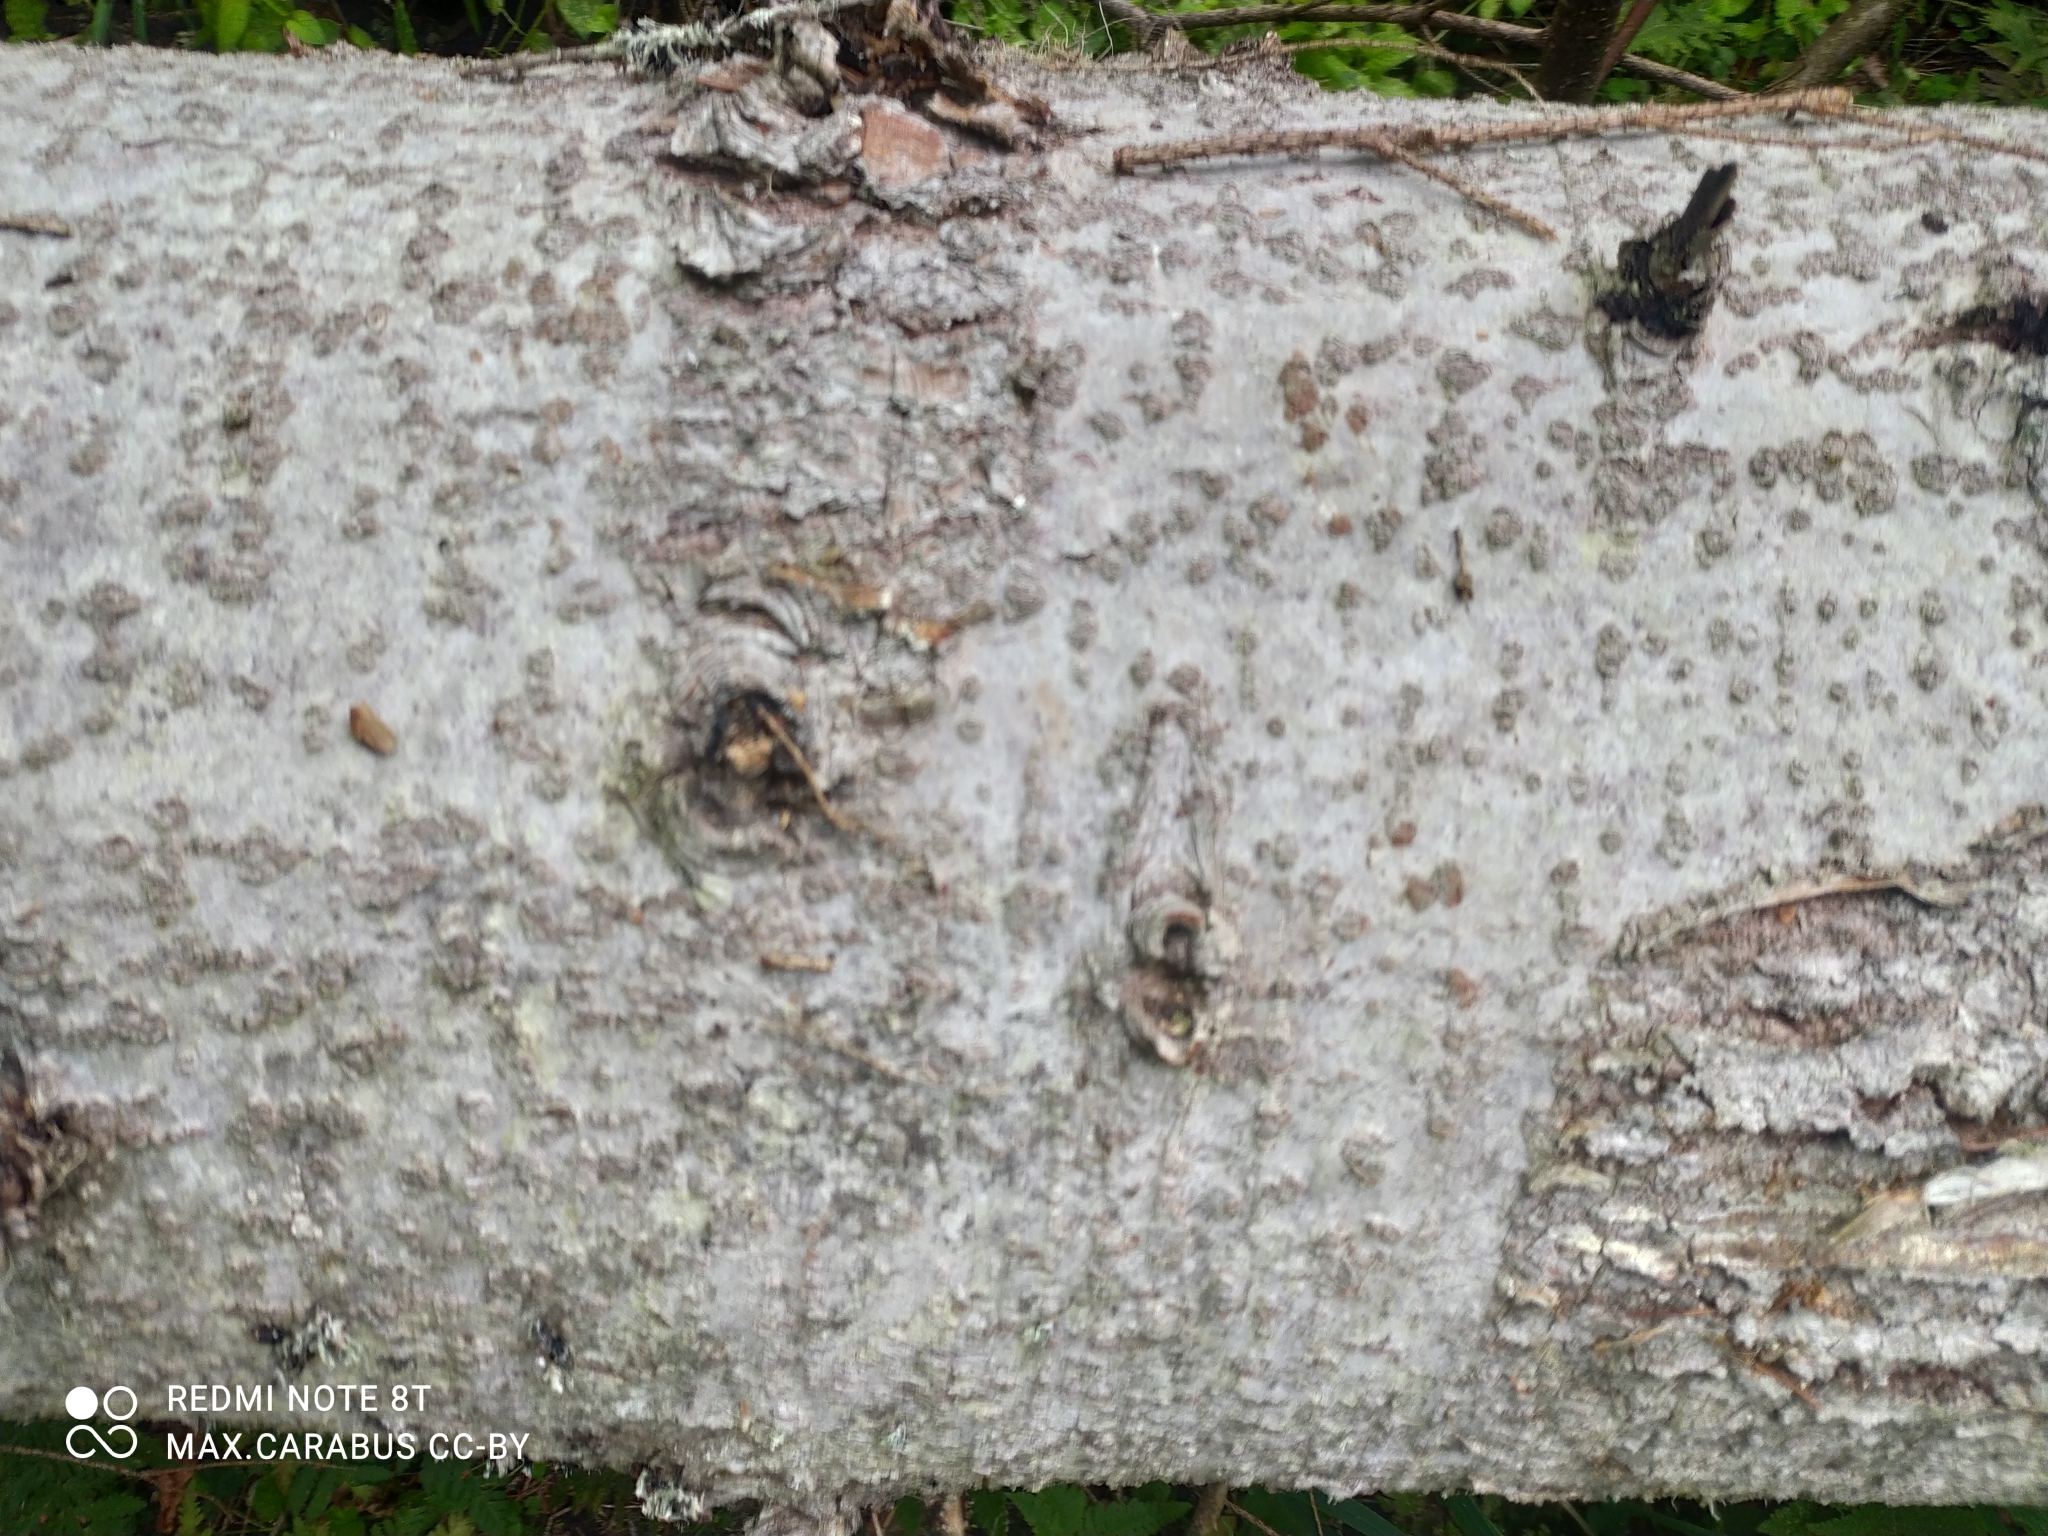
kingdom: Plantae
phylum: Tracheophyta
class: Pinopsida
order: Pinales
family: Pinaceae
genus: Abies
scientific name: Abies sibirica
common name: Siberian fir
